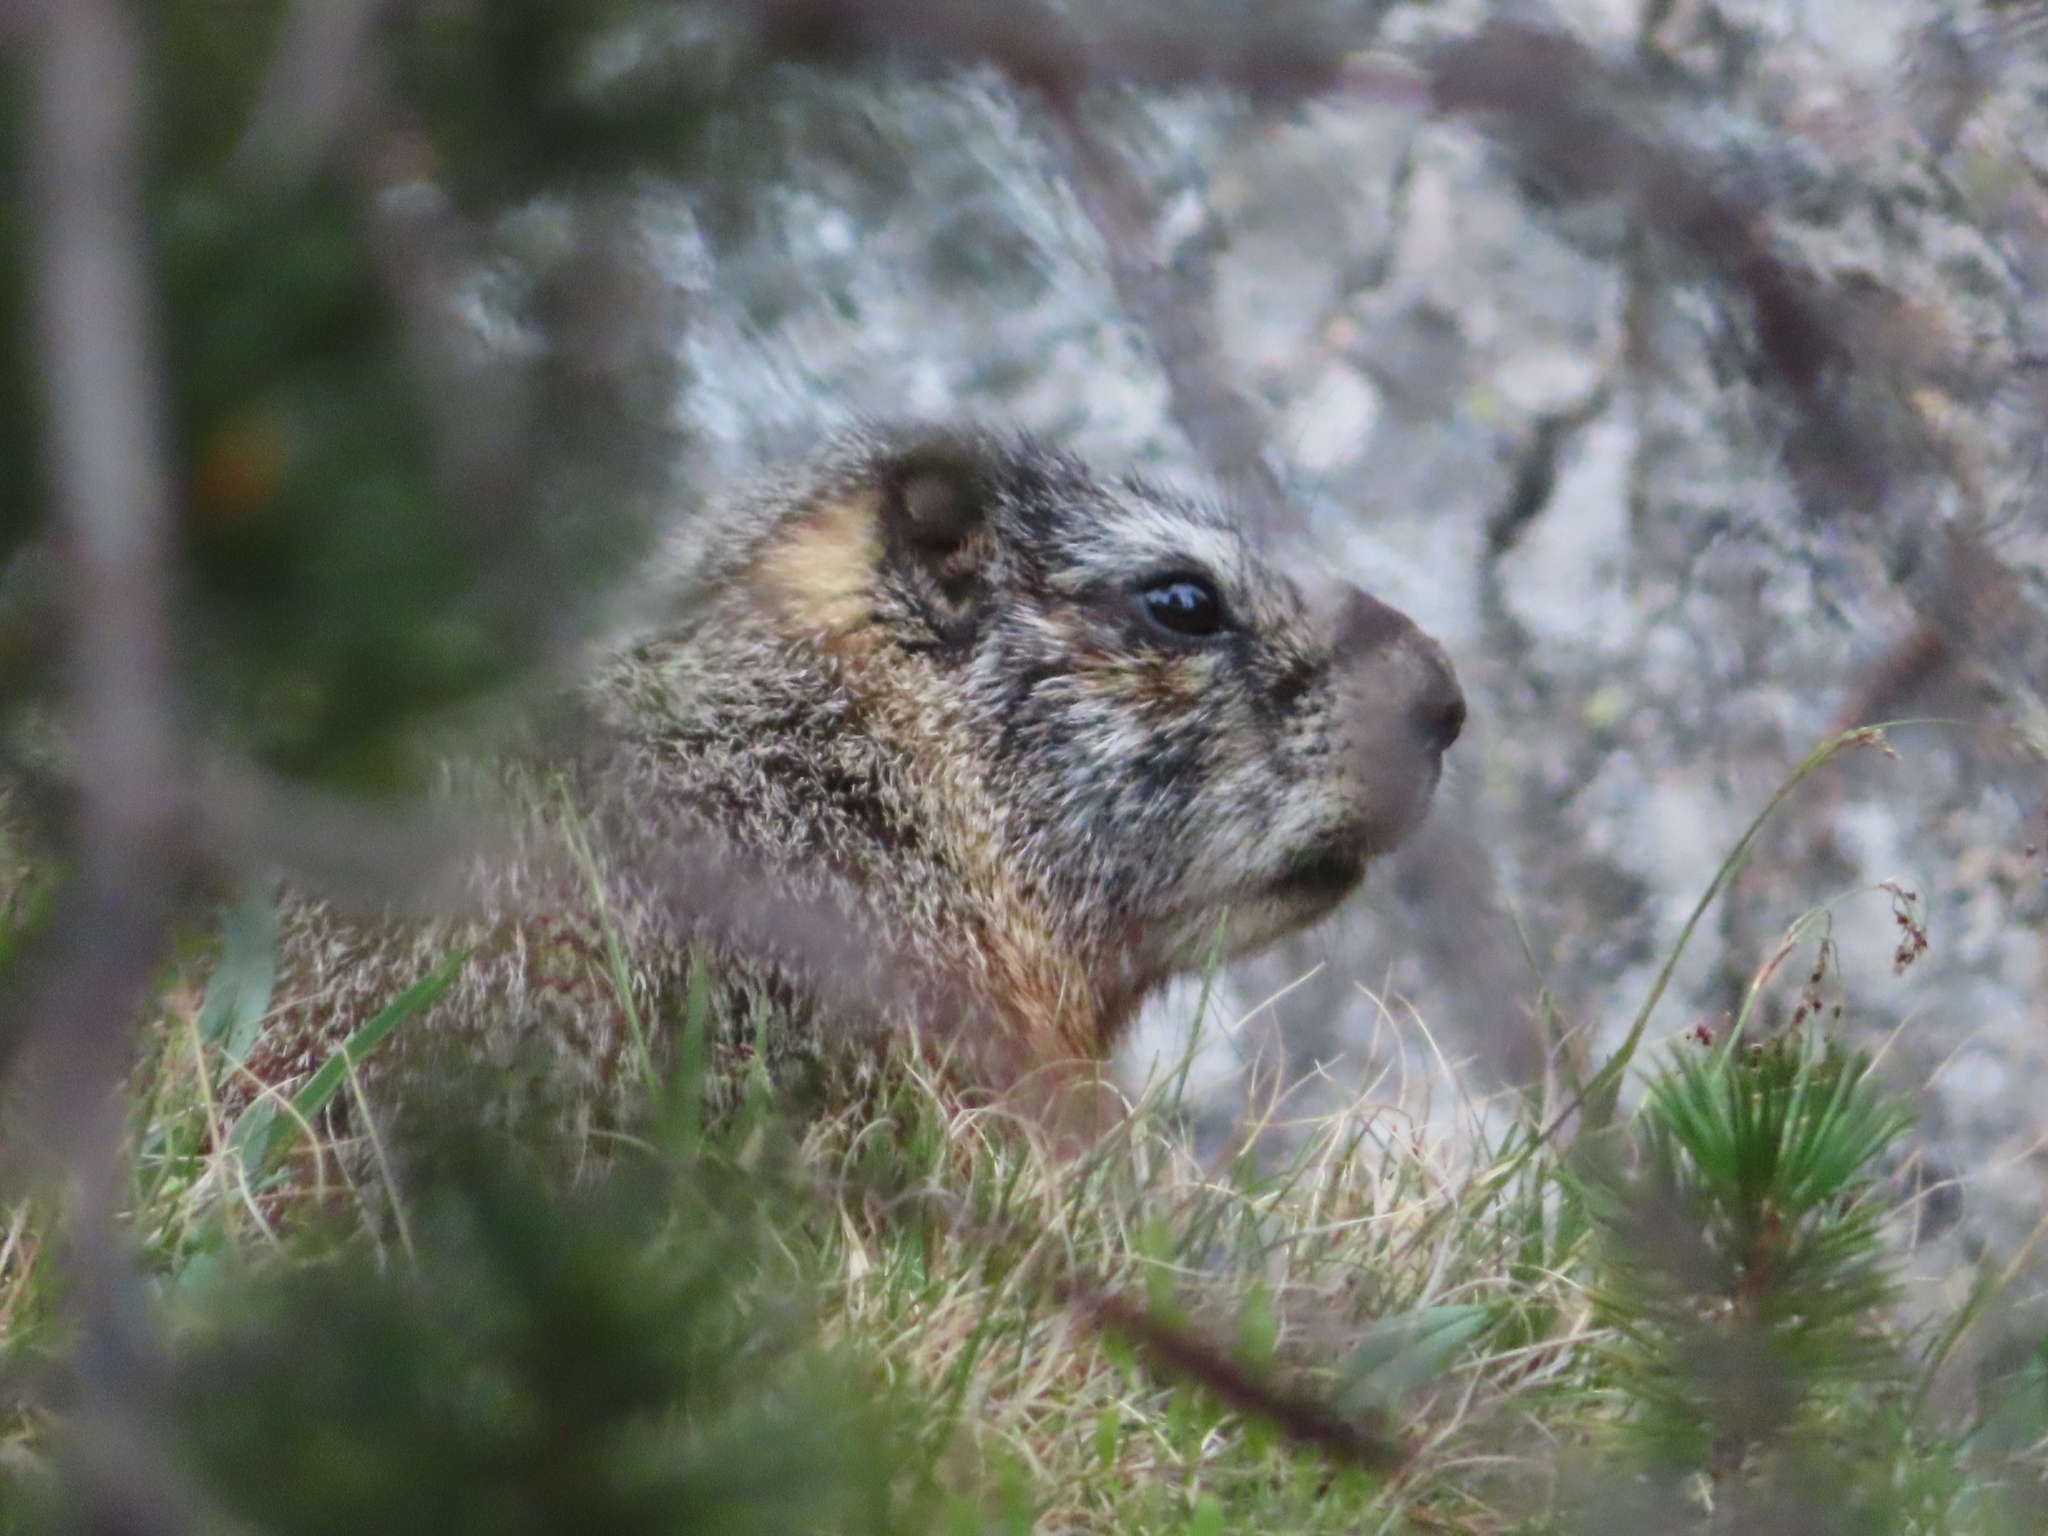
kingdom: Animalia
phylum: Chordata
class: Mammalia
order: Rodentia
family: Sciuridae
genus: Marmota
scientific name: Marmota flaviventris
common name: Yellow-bellied marmot
